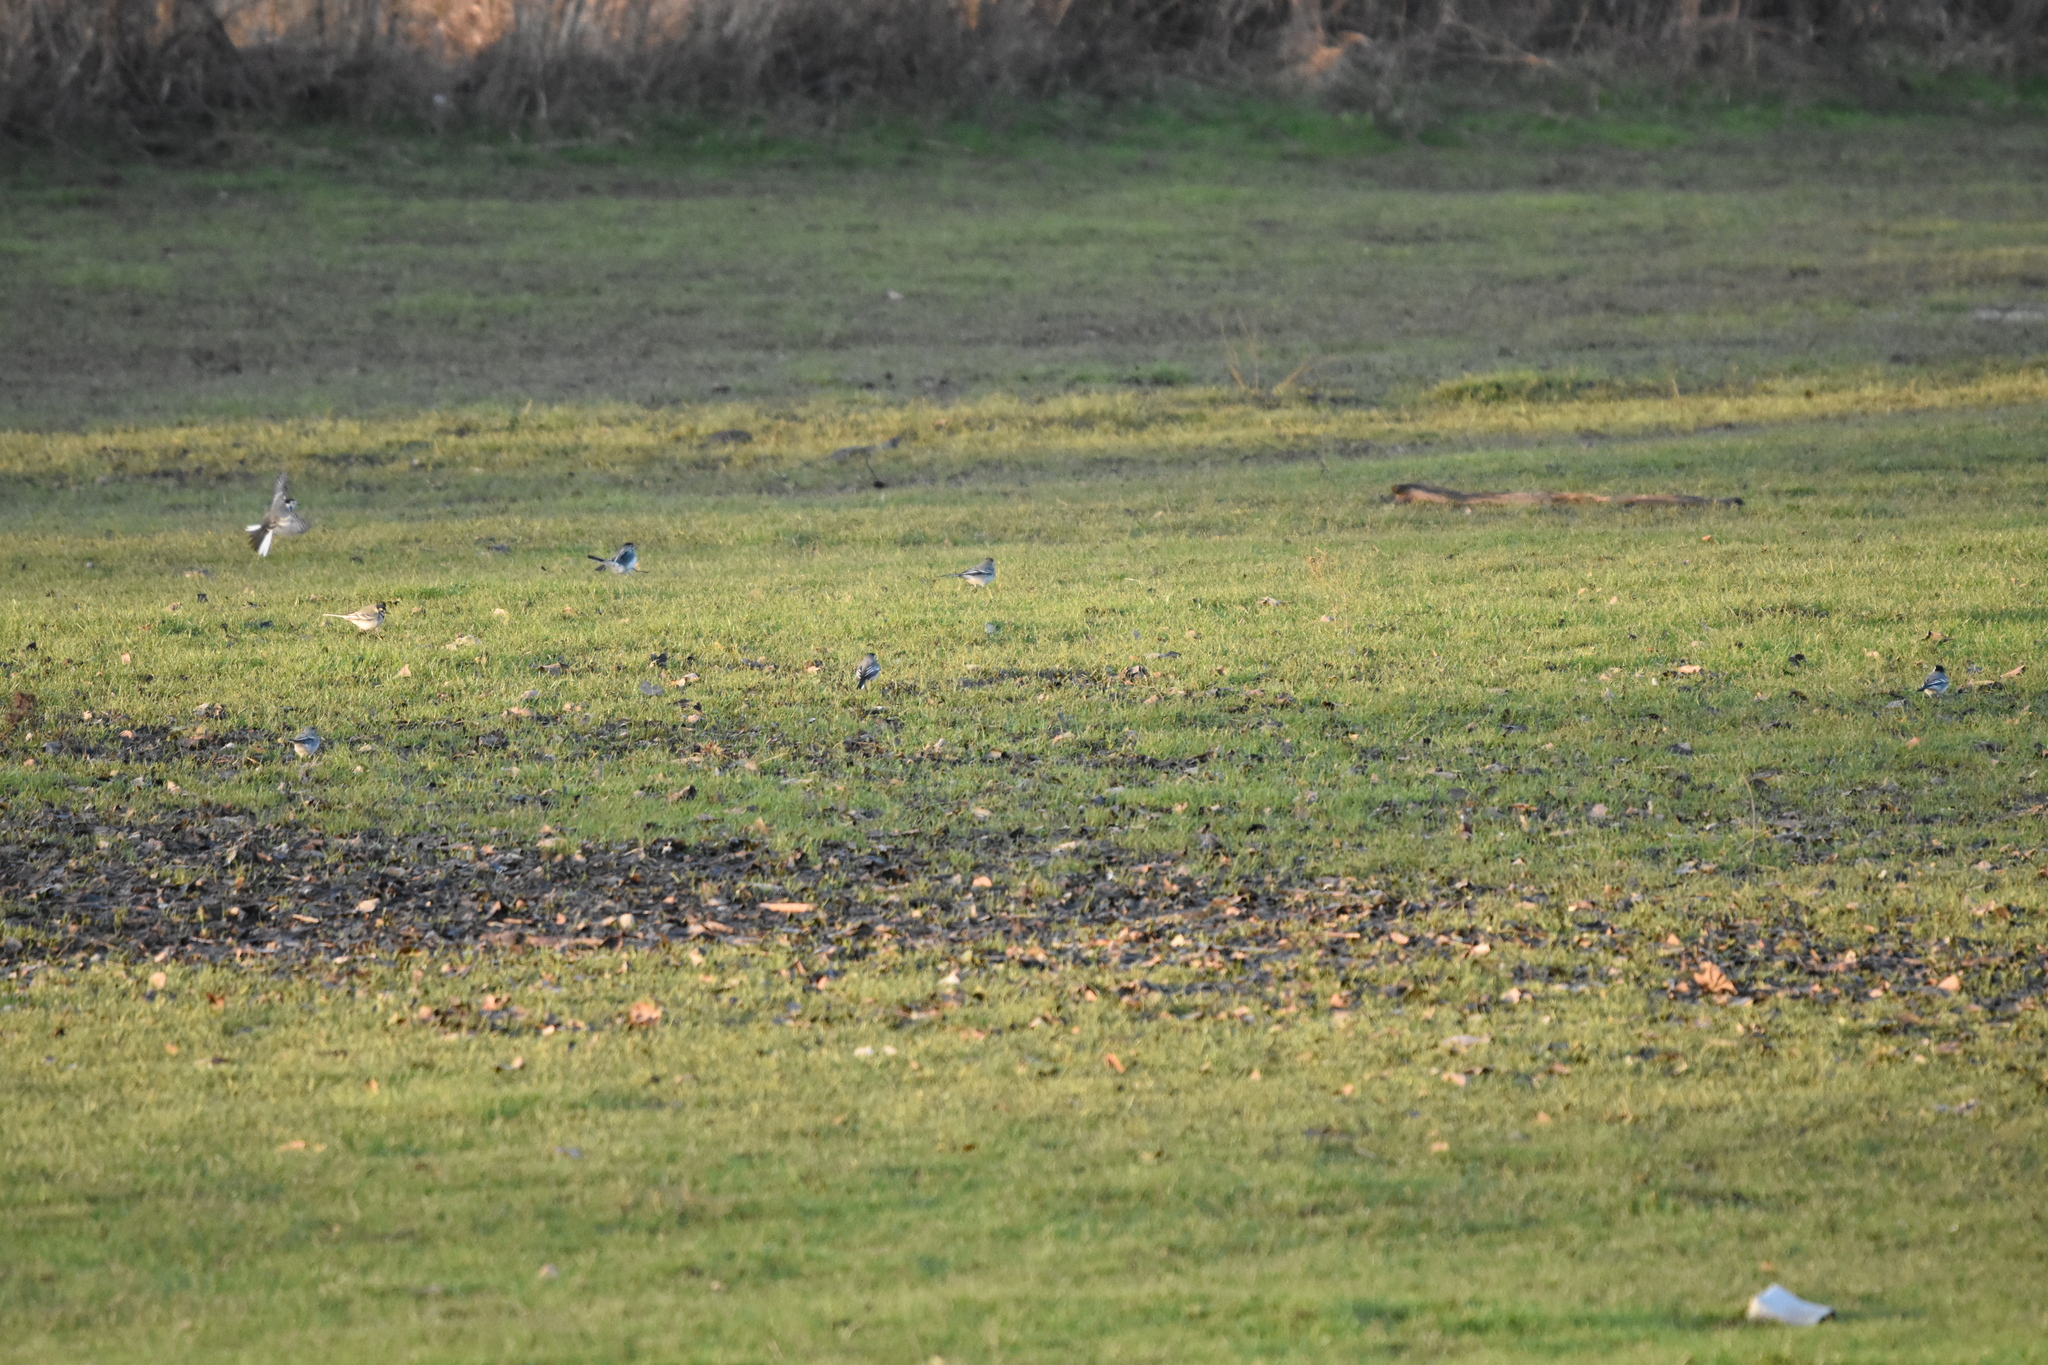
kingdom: Animalia
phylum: Chordata
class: Aves
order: Passeriformes
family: Motacillidae
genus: Motacilla
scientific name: Motacilla alba
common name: White wagtail
